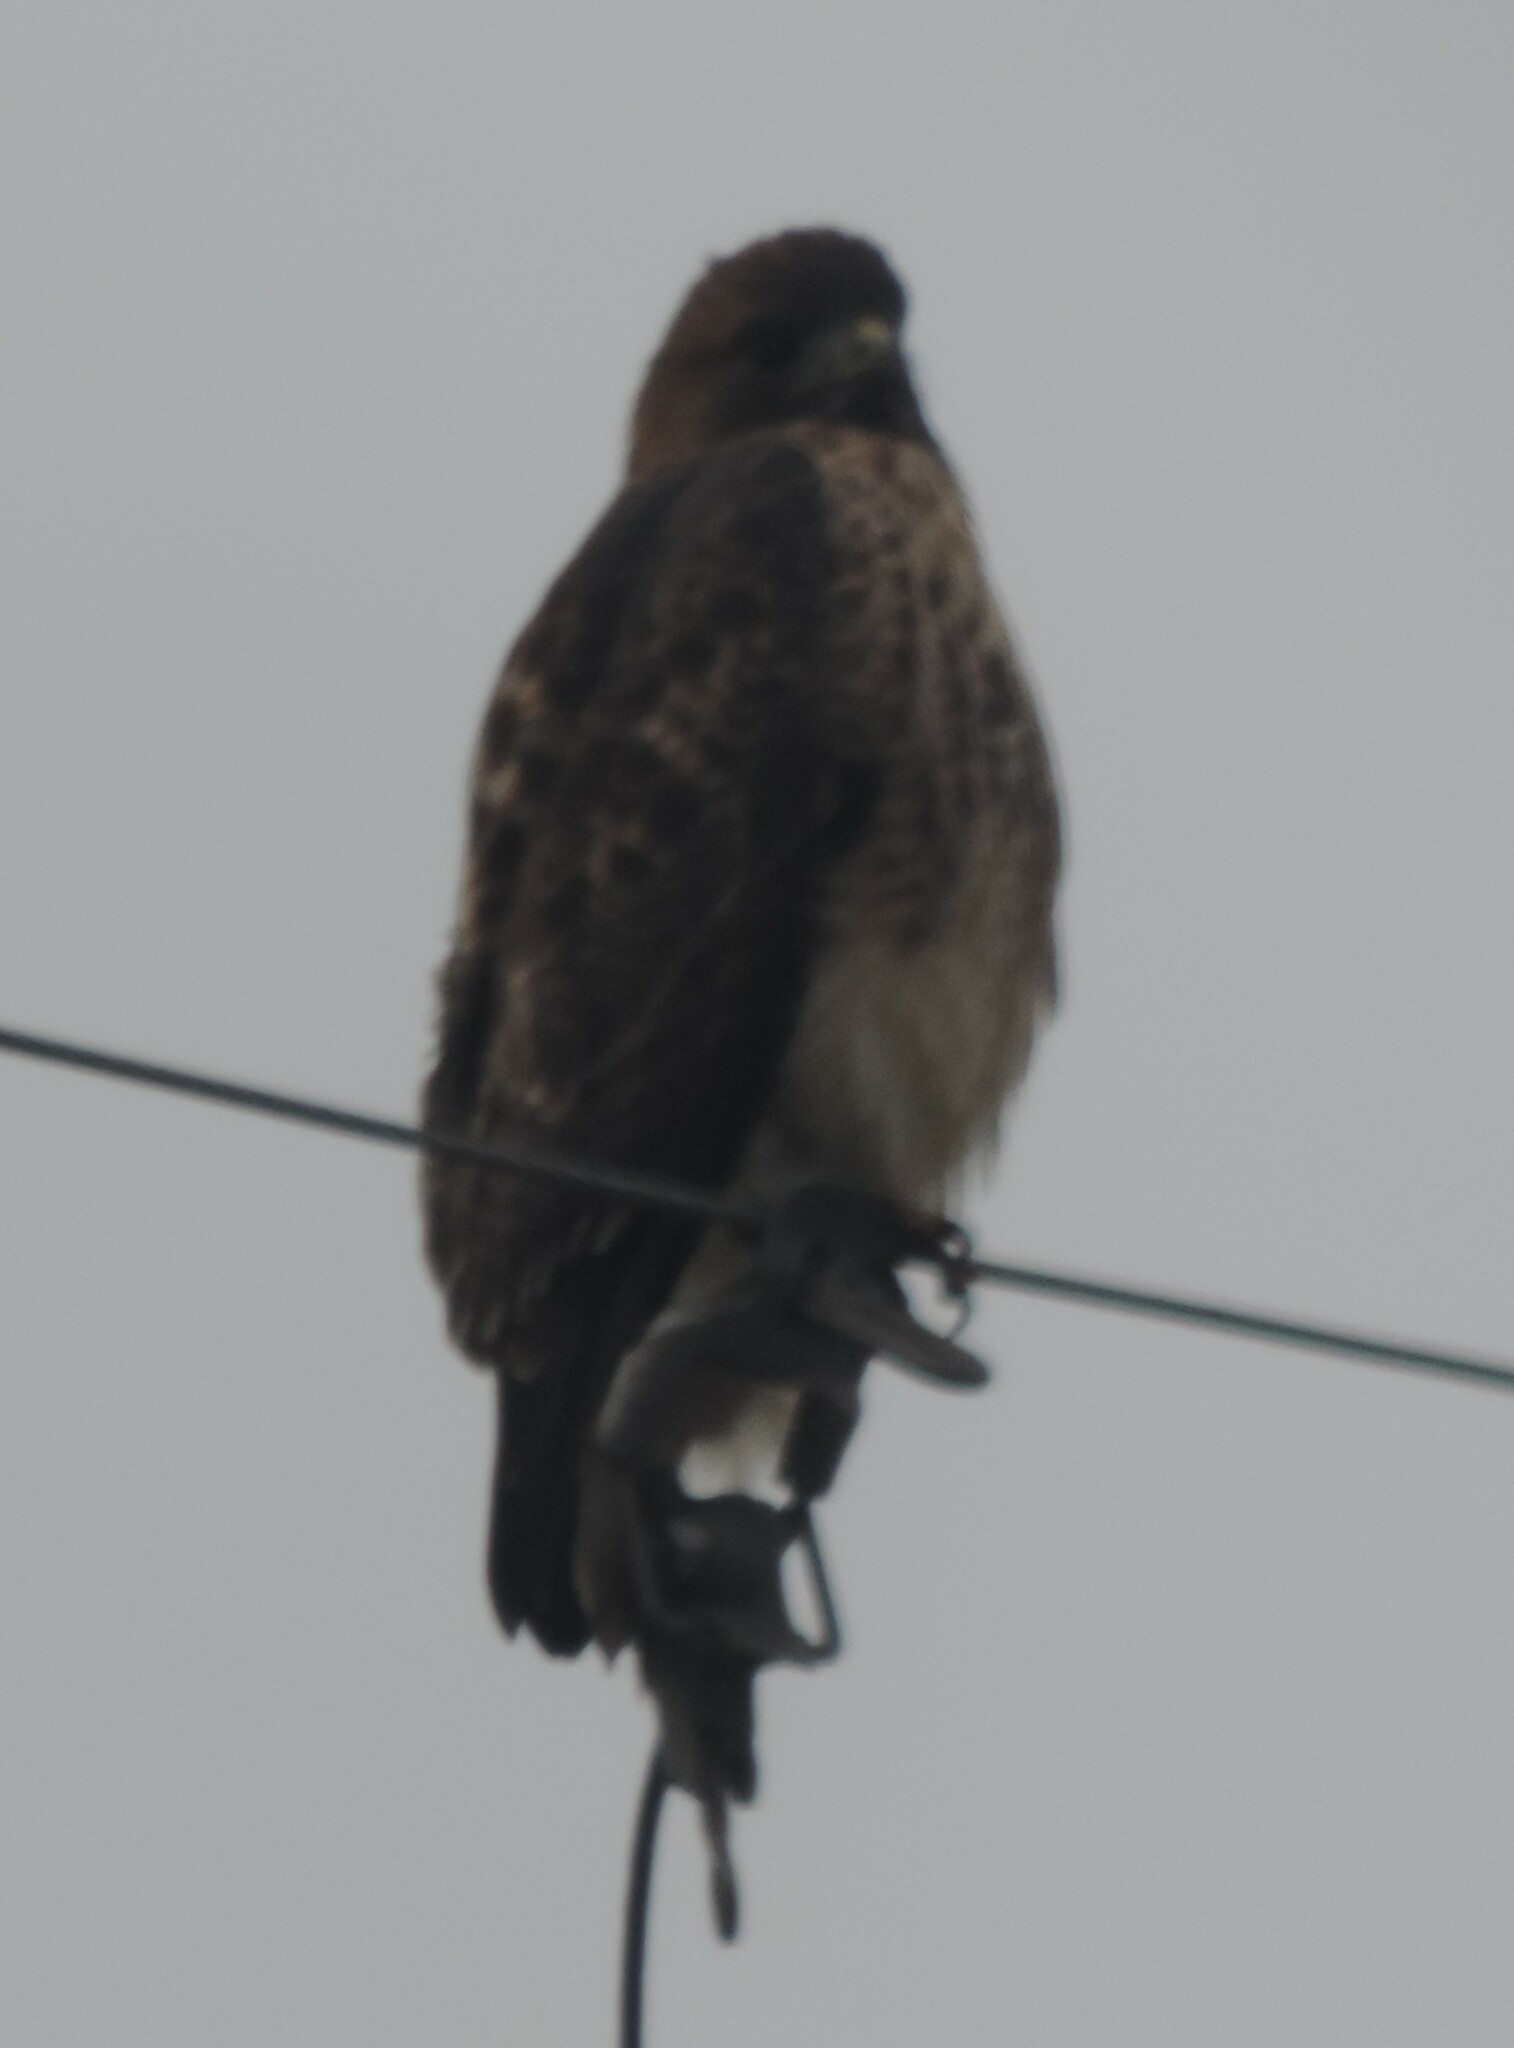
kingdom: Animalia
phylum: Chordata
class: Aves
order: Accipitriformes
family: Accipitridae
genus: Buteo
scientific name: Buteo jamaicensis
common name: Red-tailed hawk
